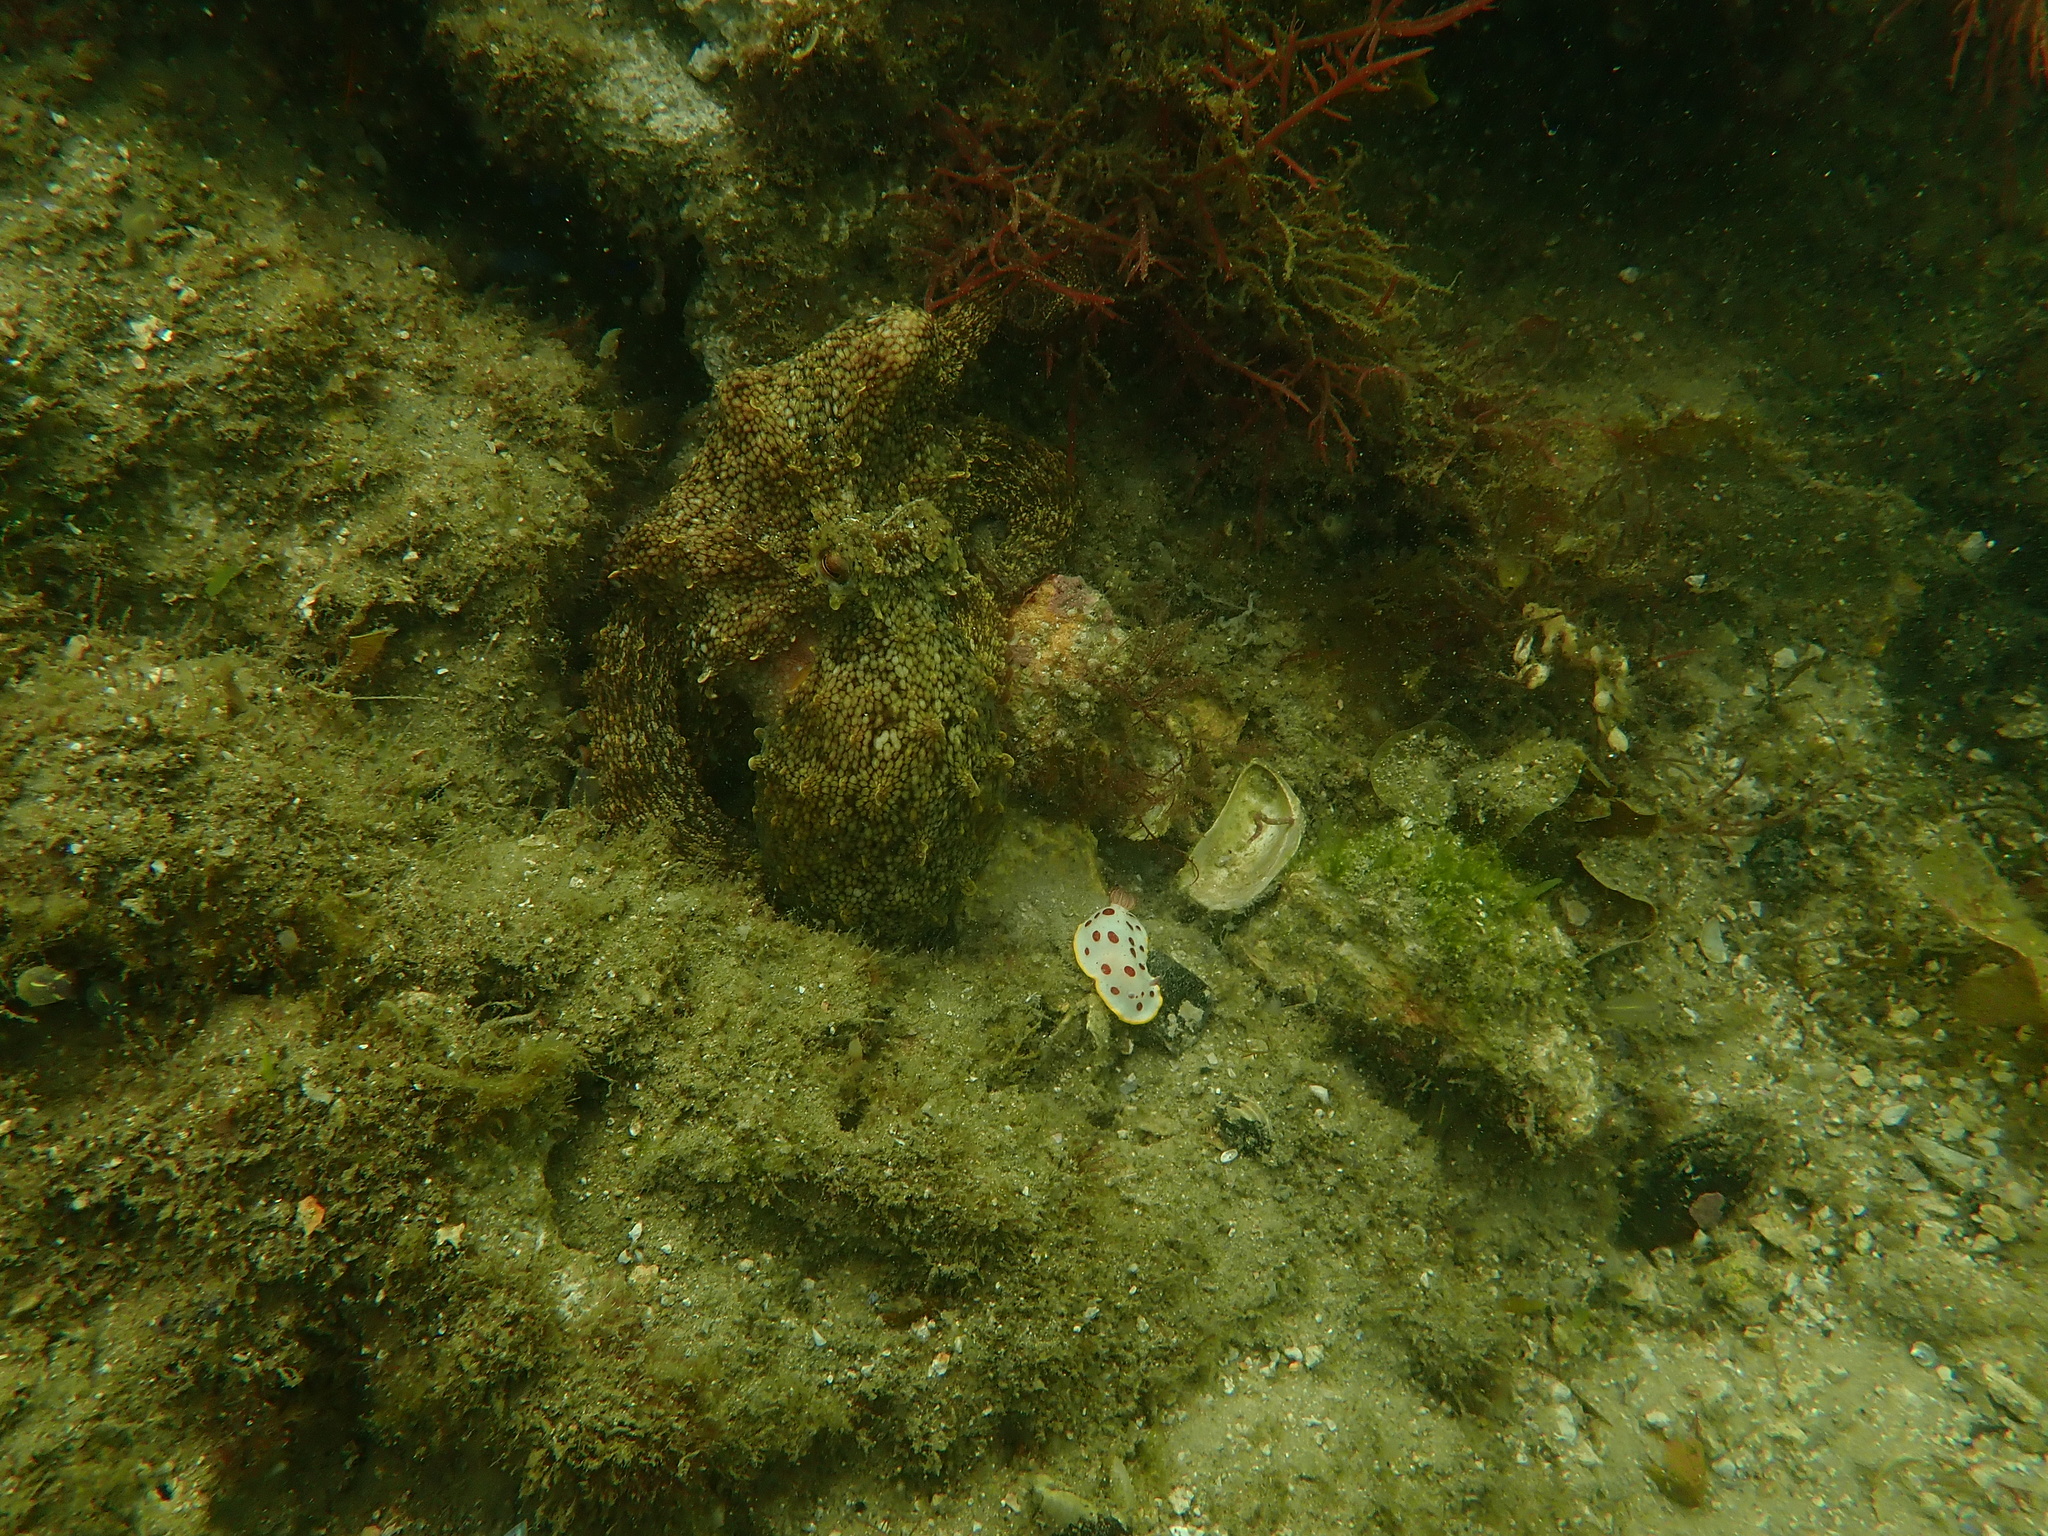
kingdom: Animalia
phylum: Mollusca
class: Cephalopoda
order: Octopoda
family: Octopodidae
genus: Octopus
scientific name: Octopus tetricus
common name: Sydney octopus
